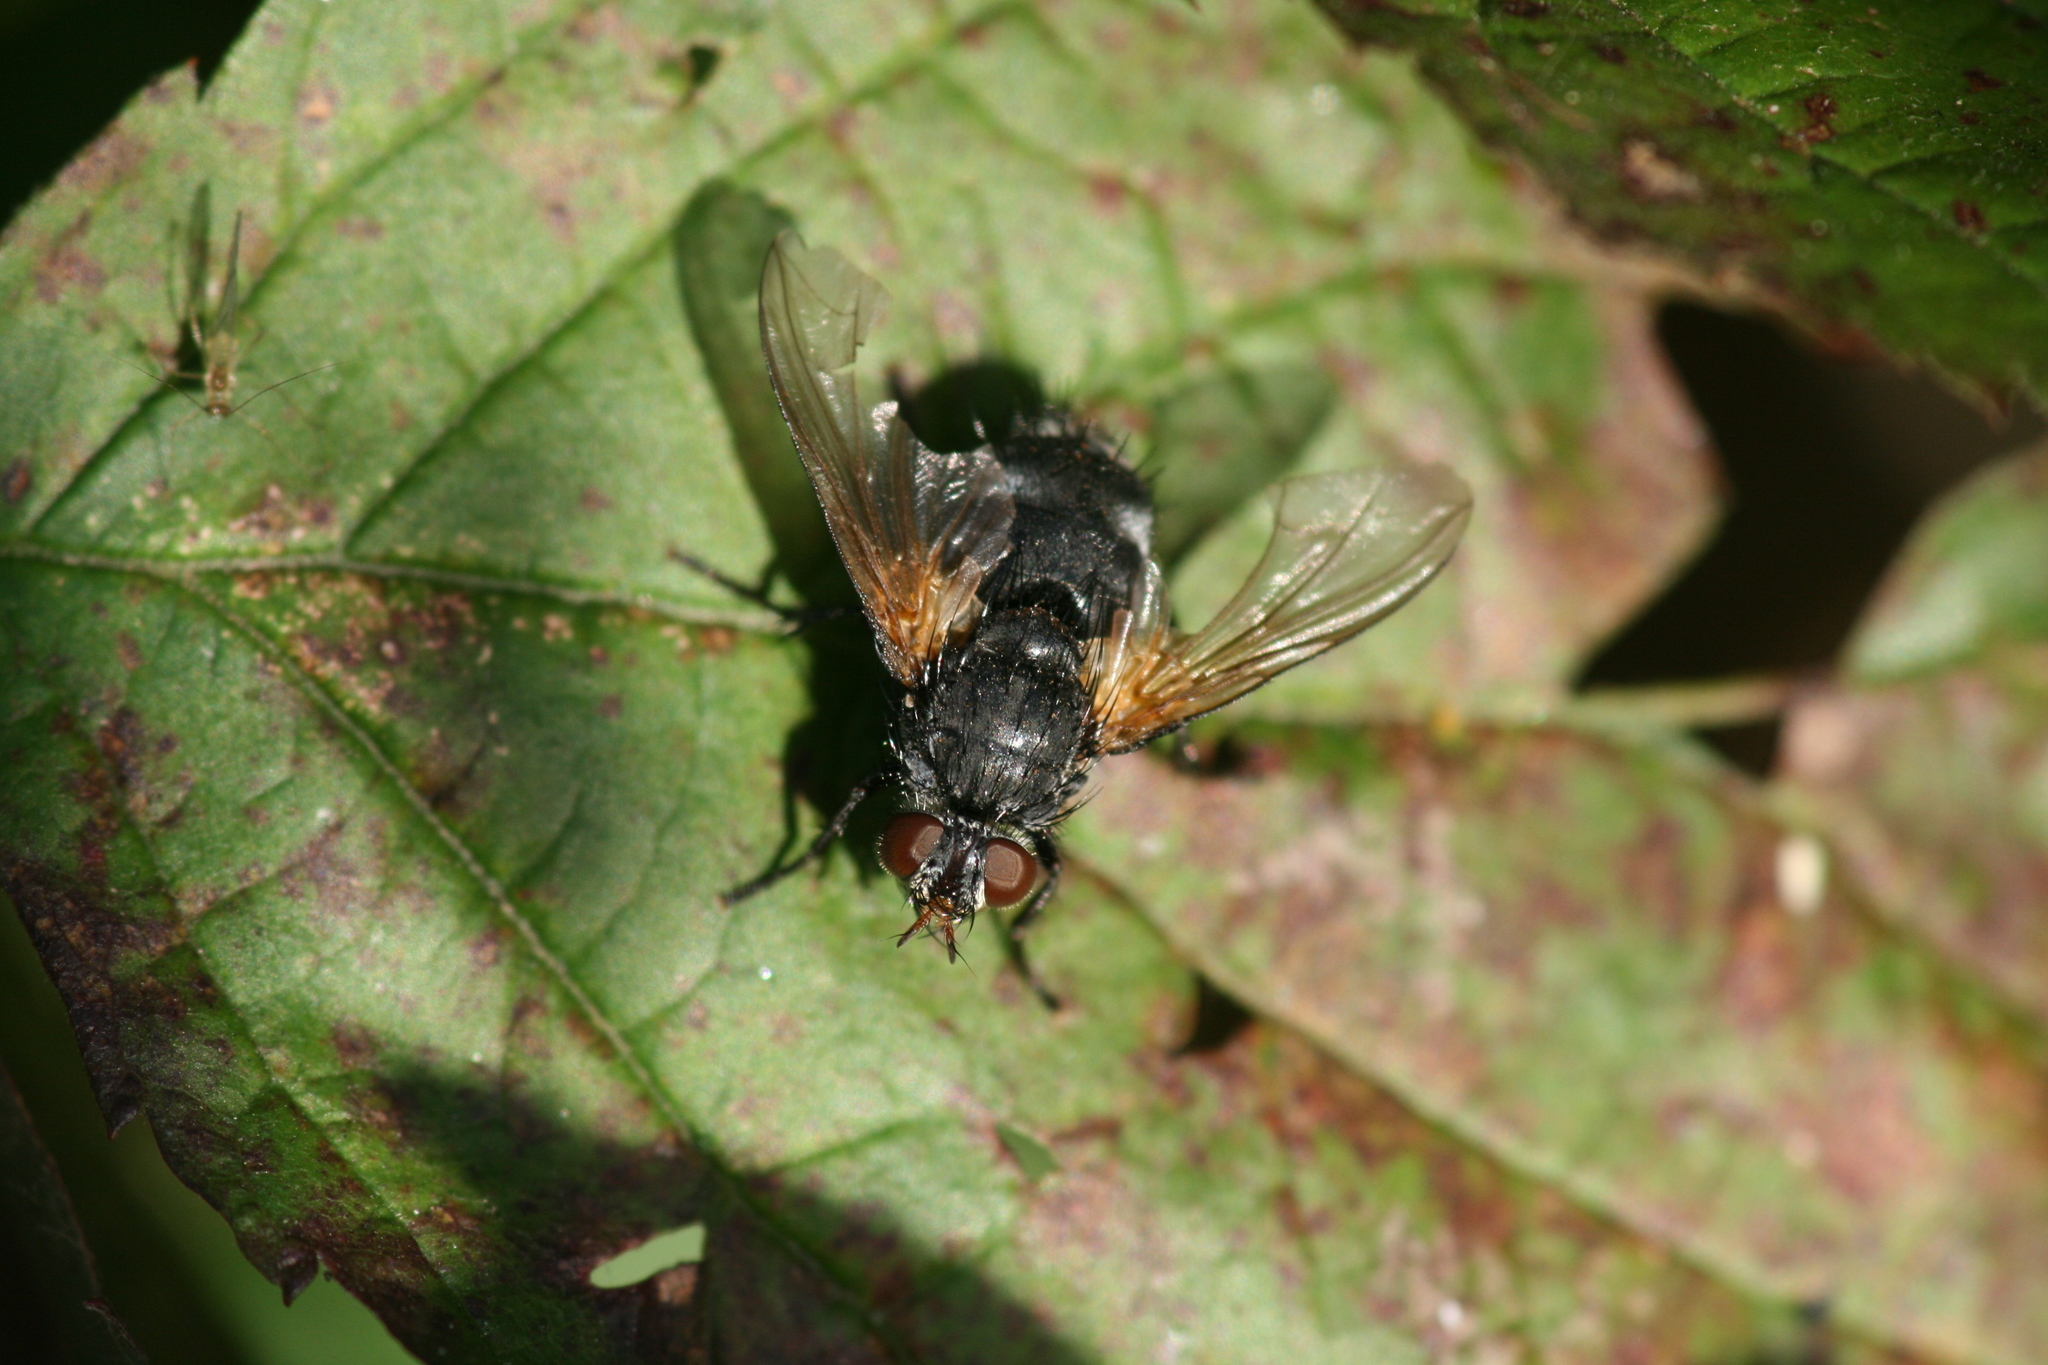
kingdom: Animalia
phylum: Arthropoda
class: Insecta
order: Diptera
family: Tachinidae
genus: Nemoraea
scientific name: Nemoraea pellucida
